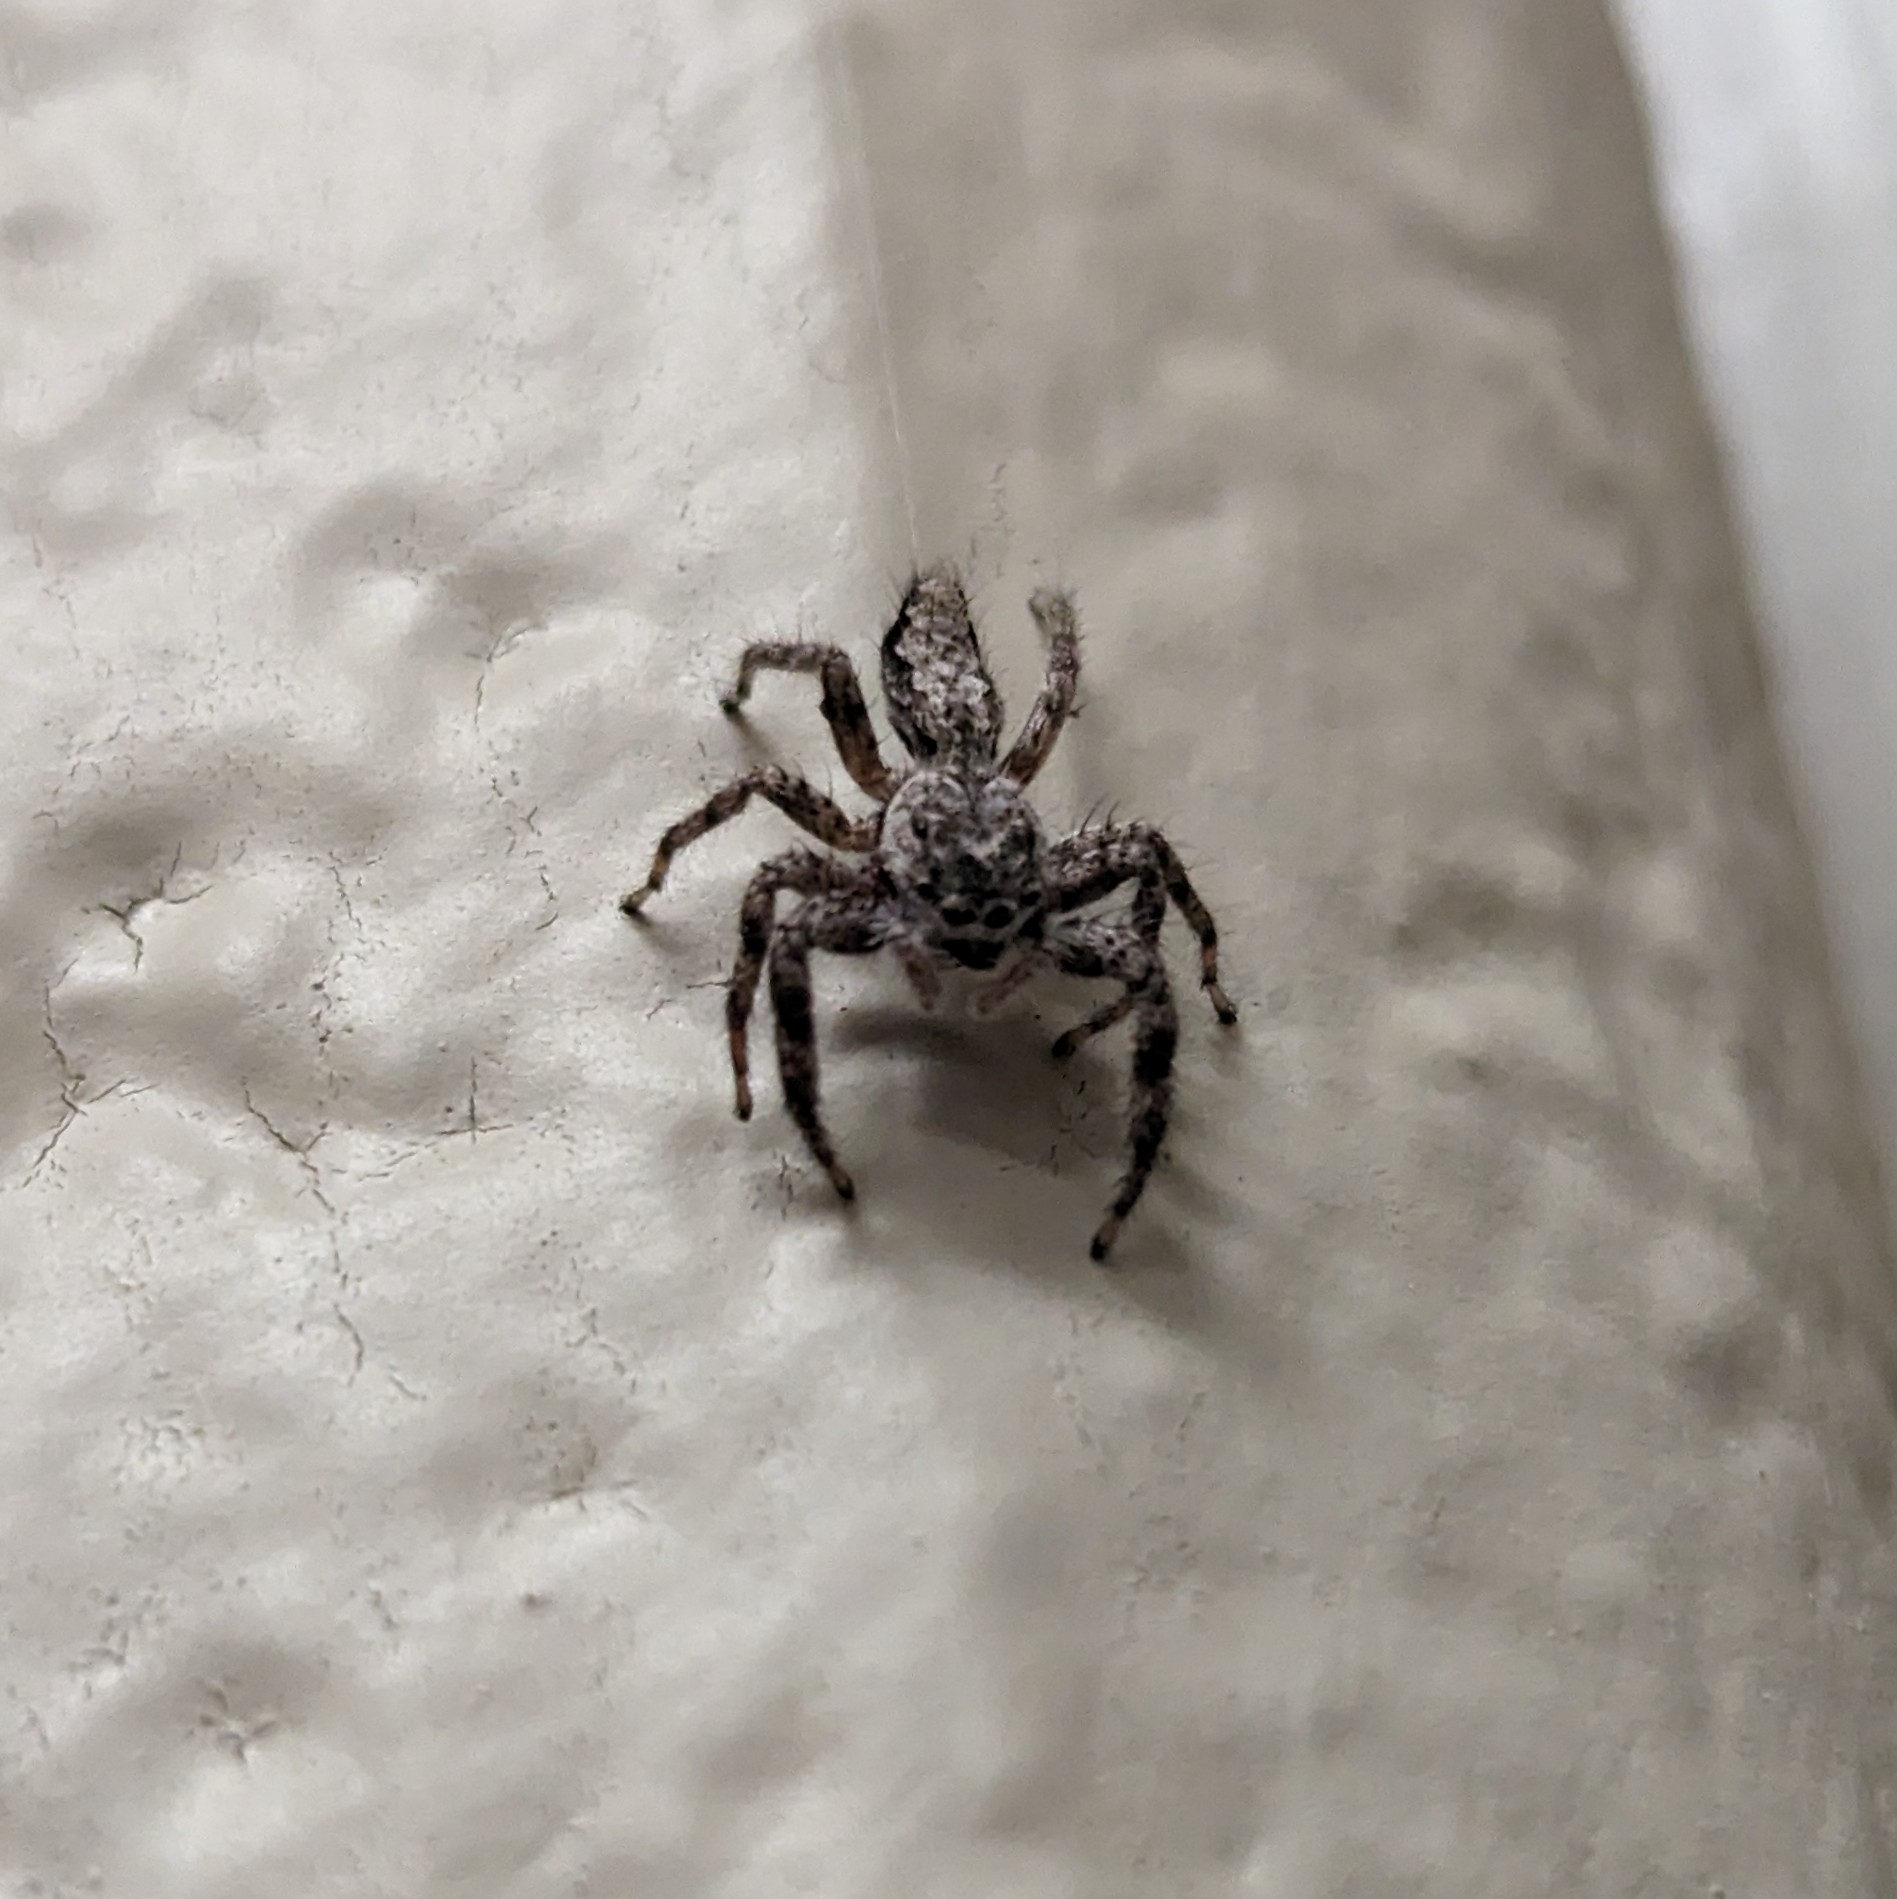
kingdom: Animalia
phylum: Arthropoda
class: Arachnida
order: Araneae
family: Salticidae
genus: Platycryptus
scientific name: Platycryptus undatus
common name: Tan jumping spider
